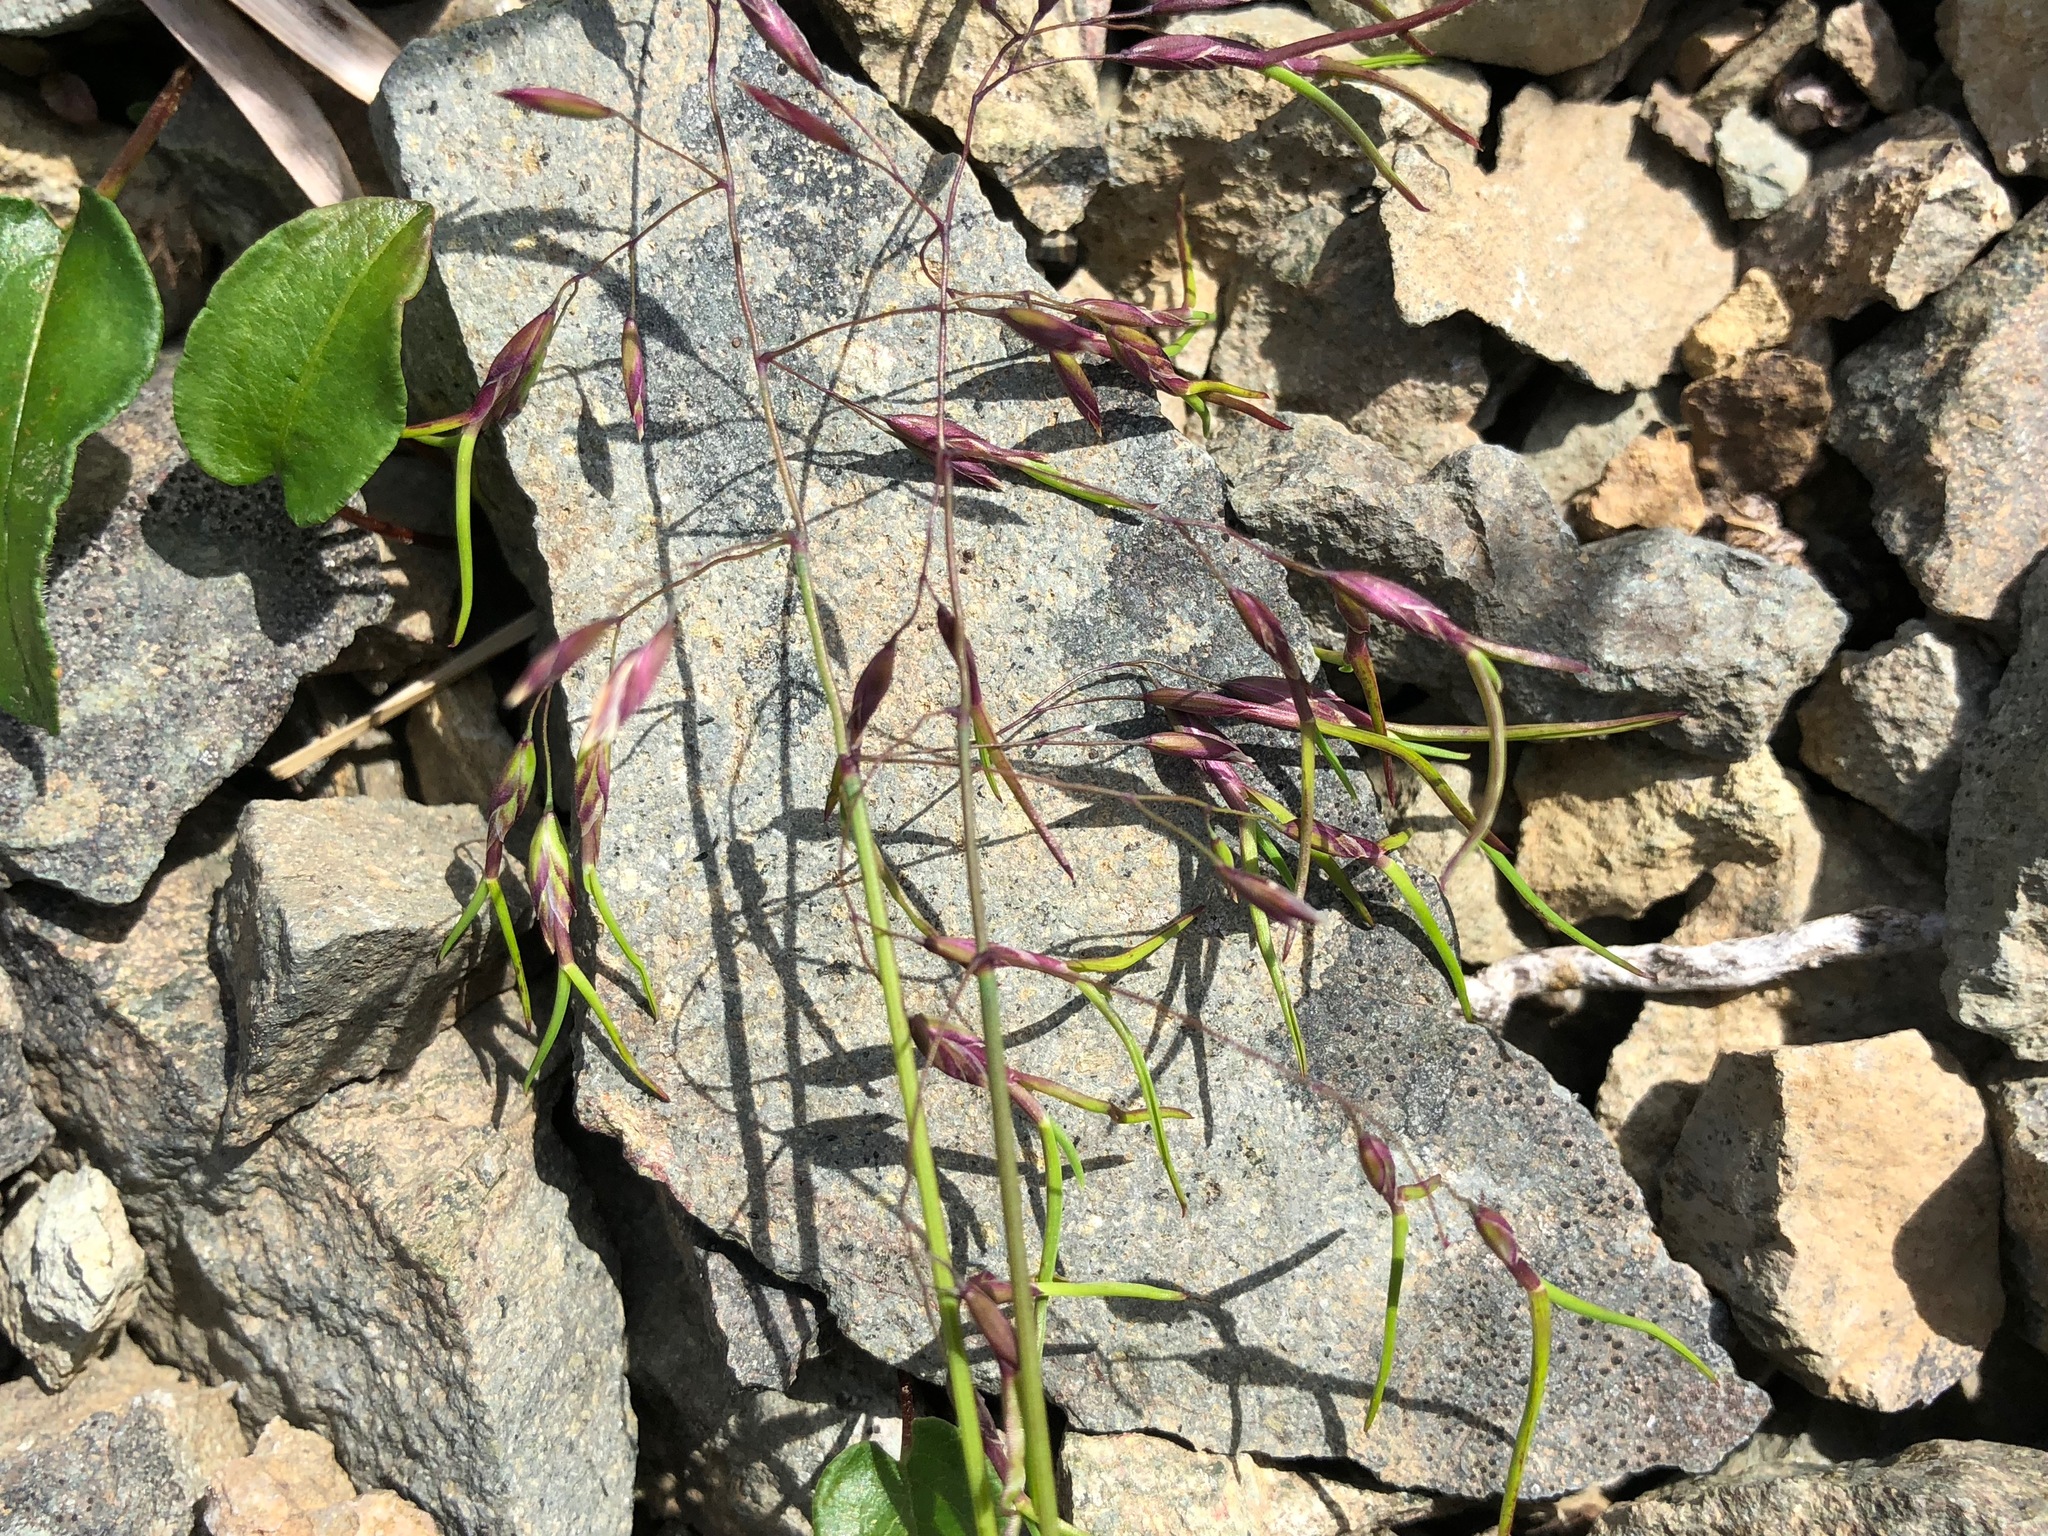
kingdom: Plantae
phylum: Tracheophyta
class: Liliopsida
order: Poales
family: Poaceae
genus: Poa
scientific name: Poa alpina
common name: Alpine bluegrass
